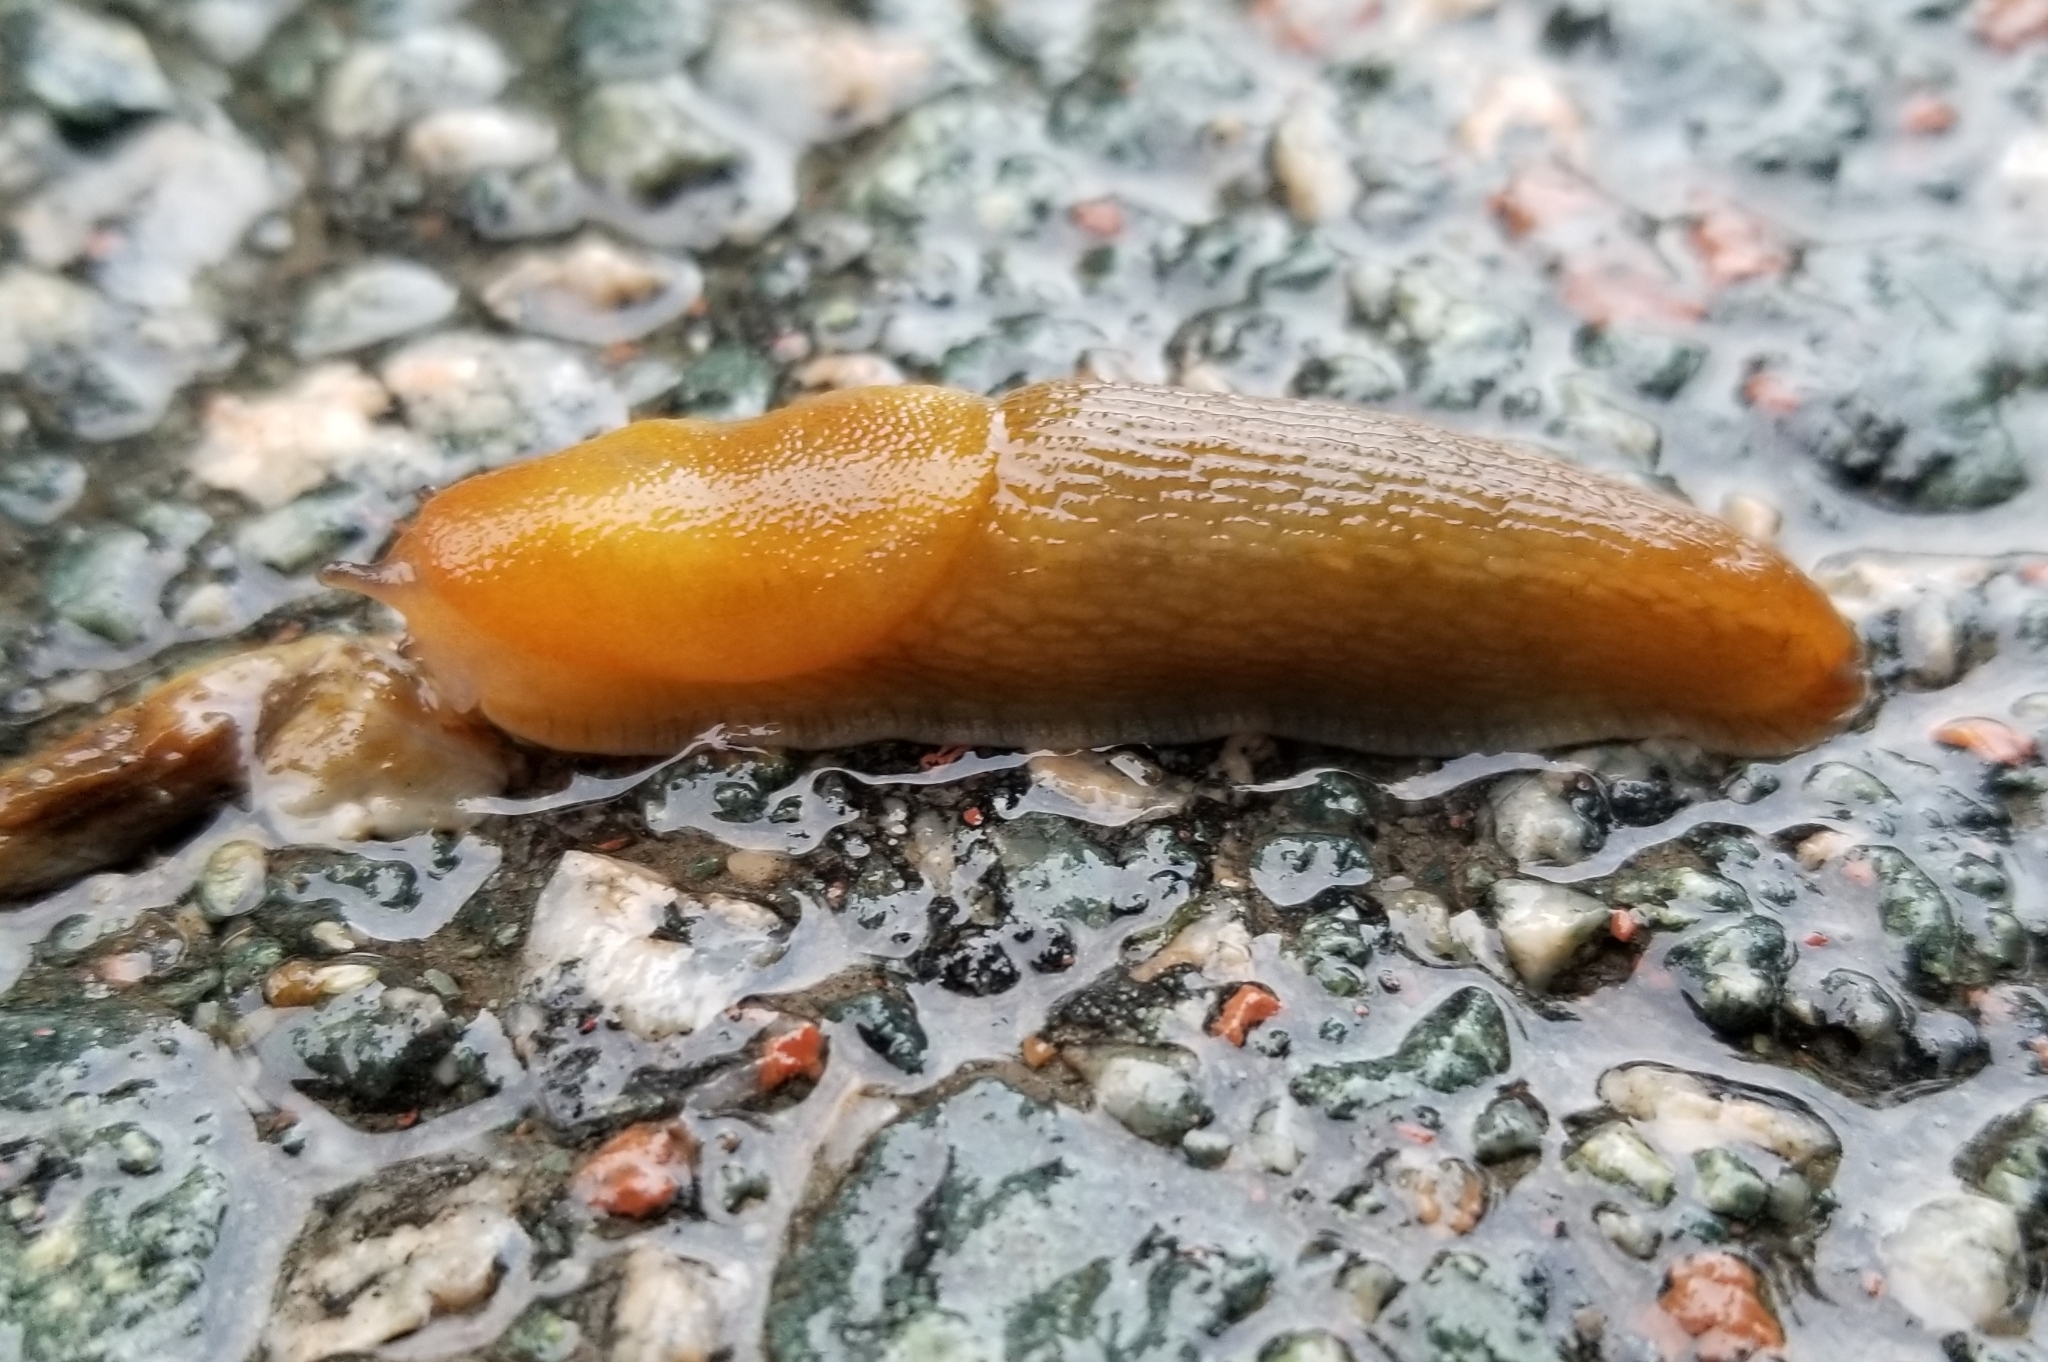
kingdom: Animalia
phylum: Mollusca
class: Gastropoda
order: Stylommatophora
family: Arionidae
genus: Arion
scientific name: Arion subfuscus
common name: Dusky arion
